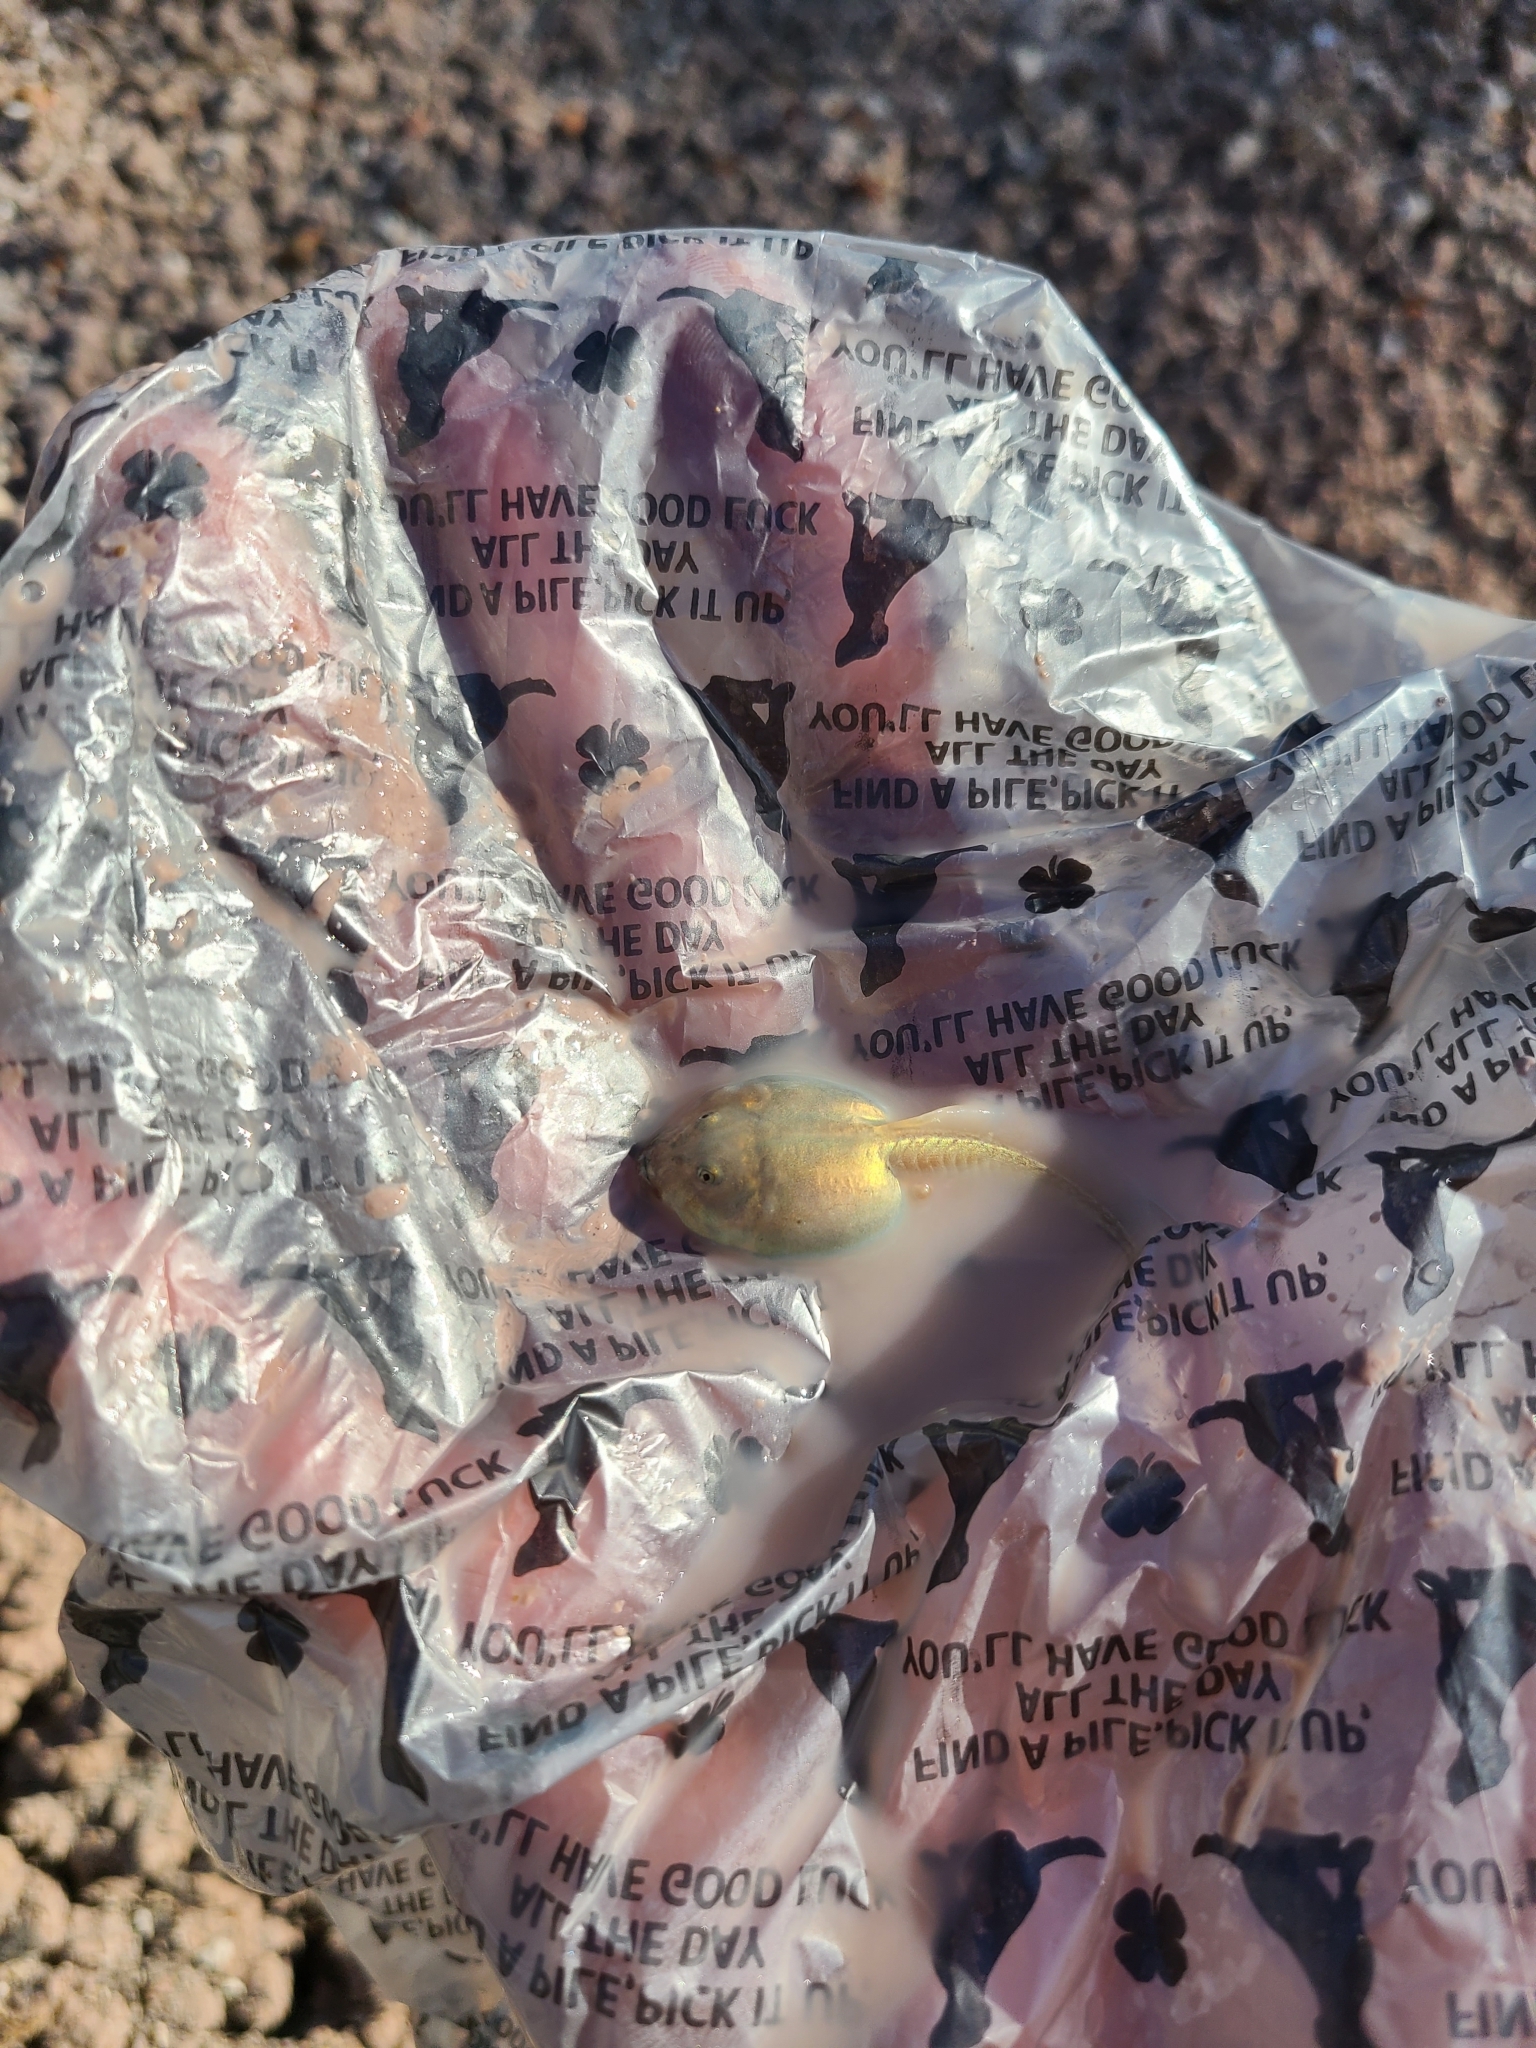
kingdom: Animalia
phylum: Chordata
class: Amphibia
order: Anura
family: Scaphiopodidae
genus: Spea
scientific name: Spea
